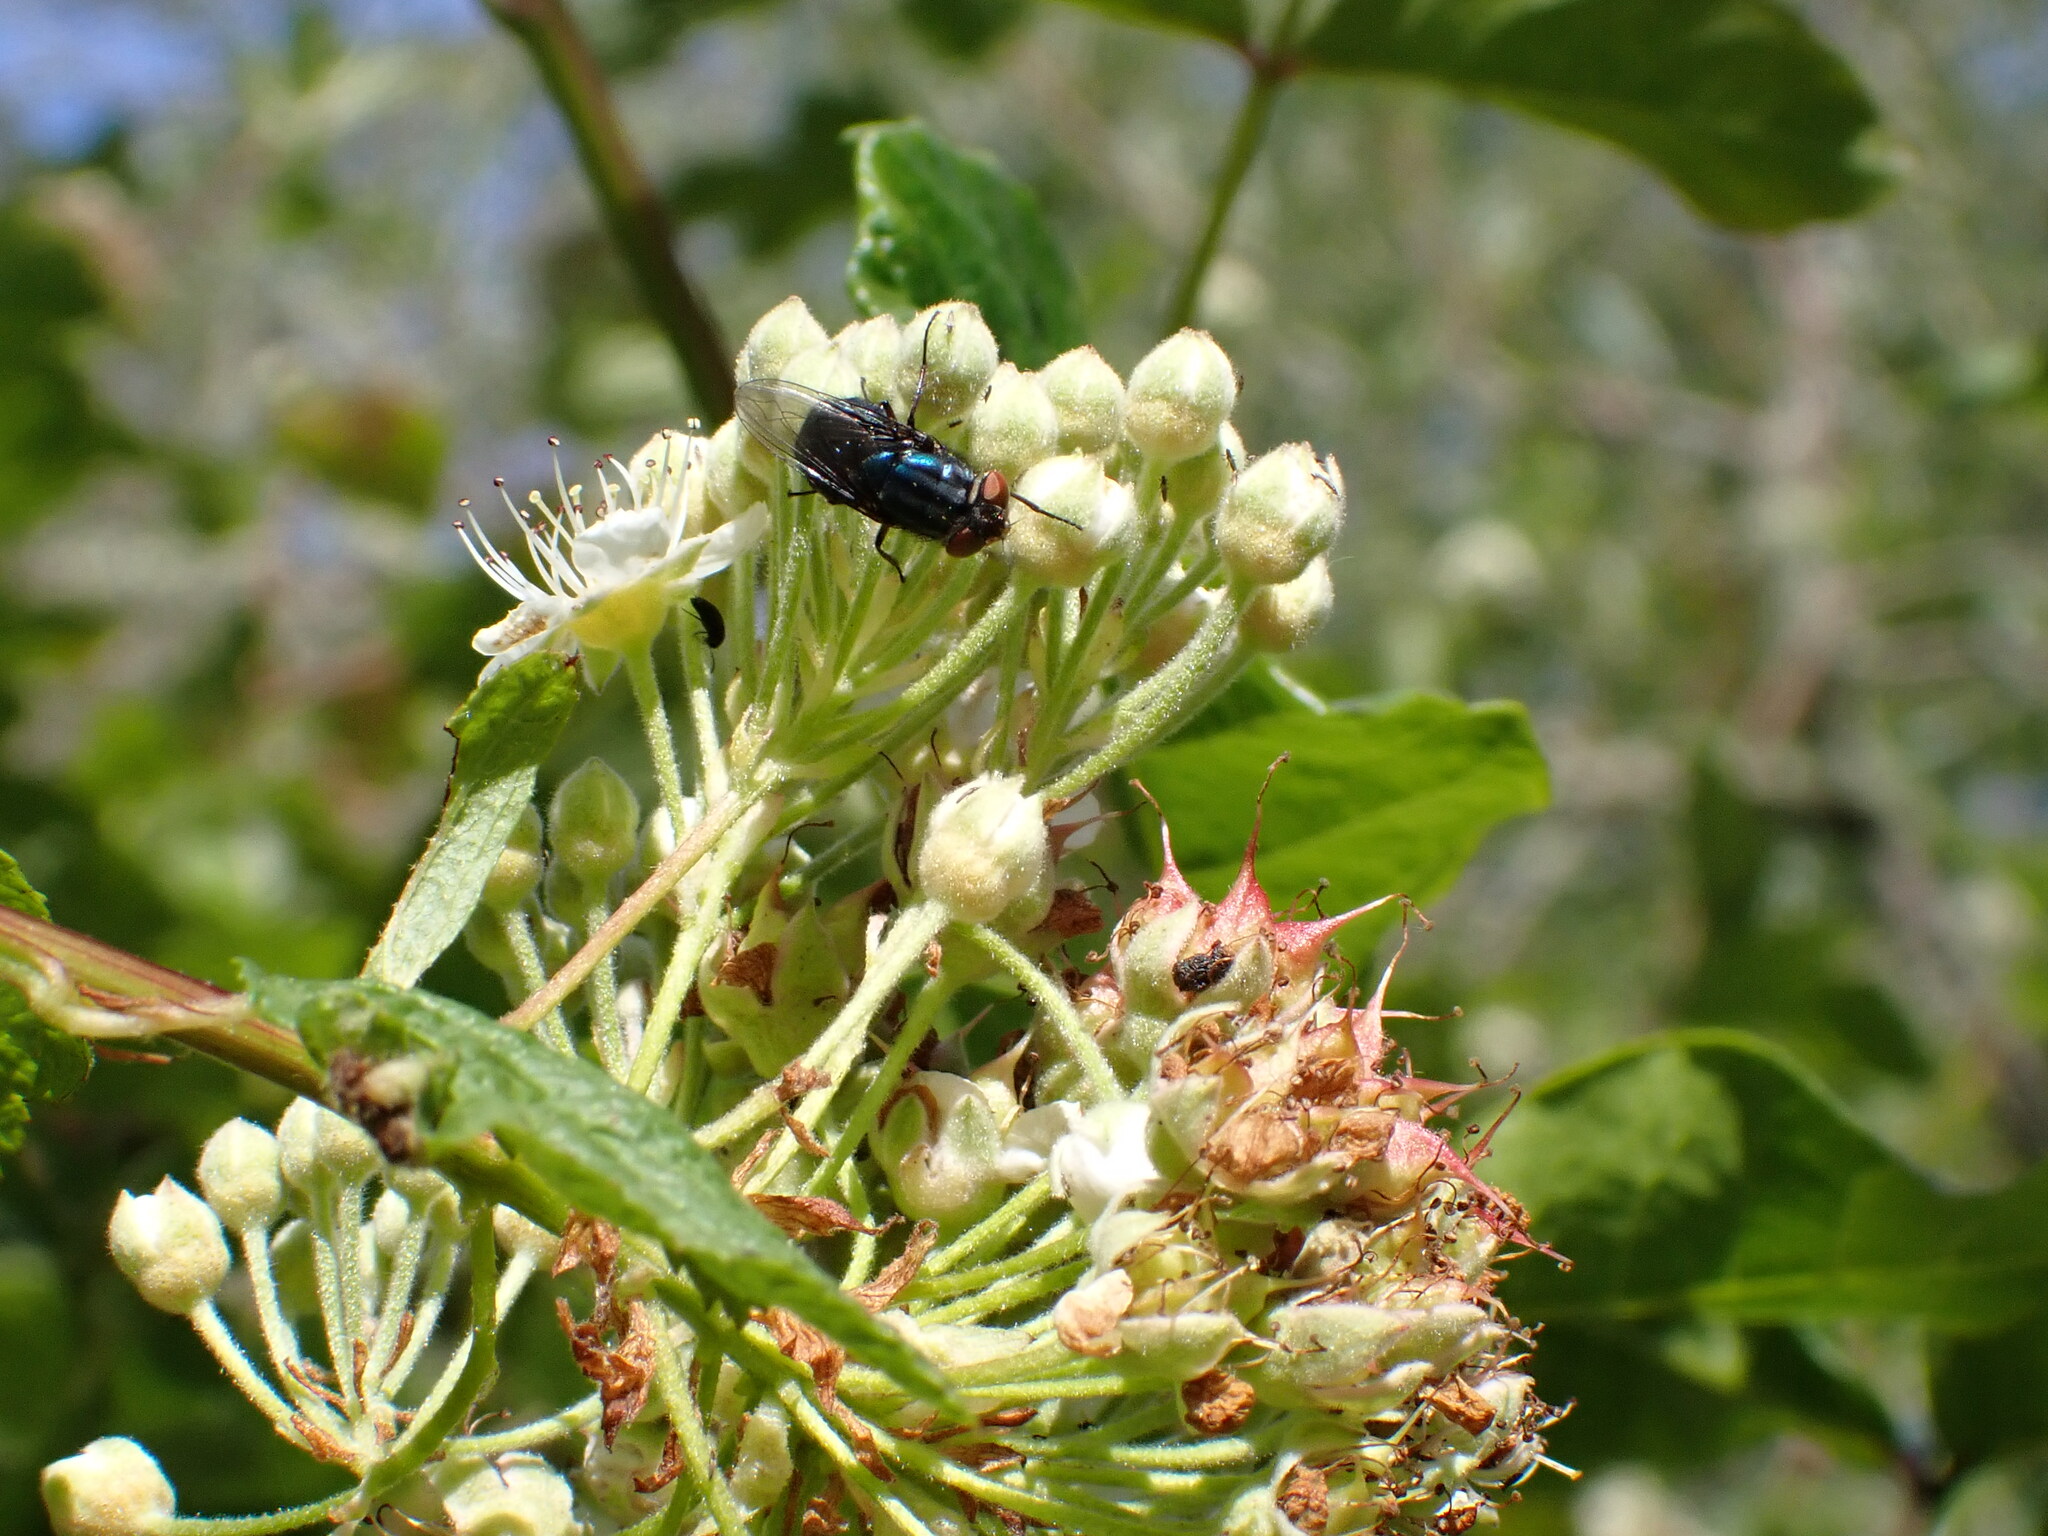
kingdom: Animalia
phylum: Arthropoda
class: Insecta
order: Diptera
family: Calliphoridae
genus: Compsomyiops
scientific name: Compsomyiops callipes
